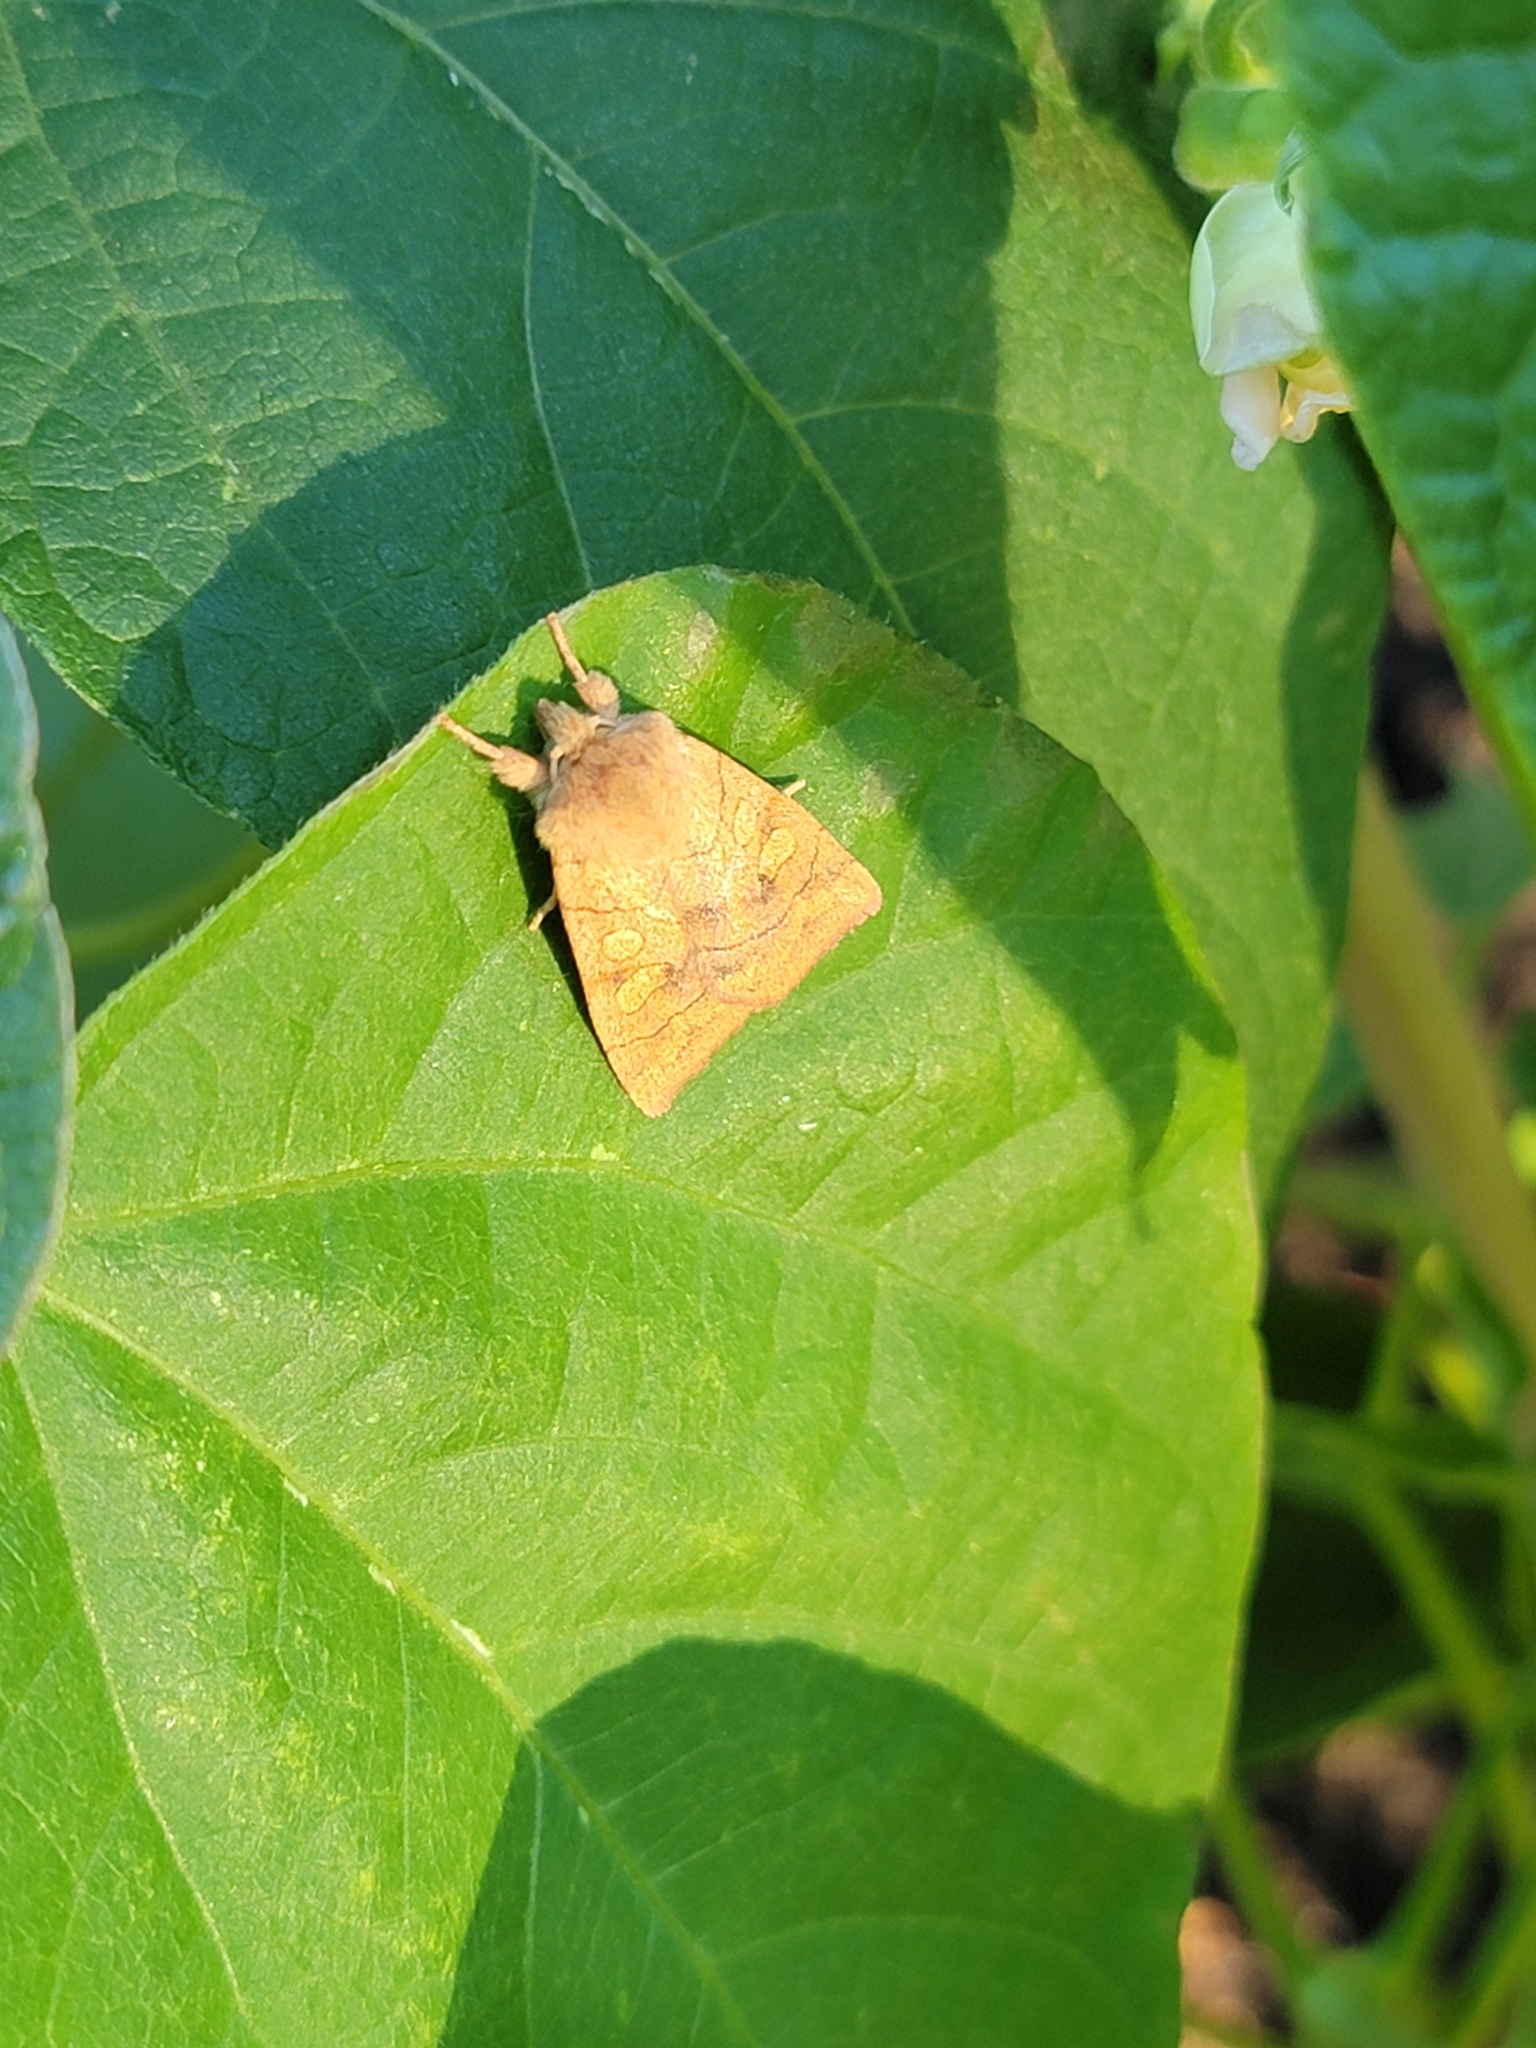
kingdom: Animalia
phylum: Arthropoda
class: Insecta
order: Lepidoptera
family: Noctuidae
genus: Enargia
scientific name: Enargia infumata
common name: Smoked sallow
